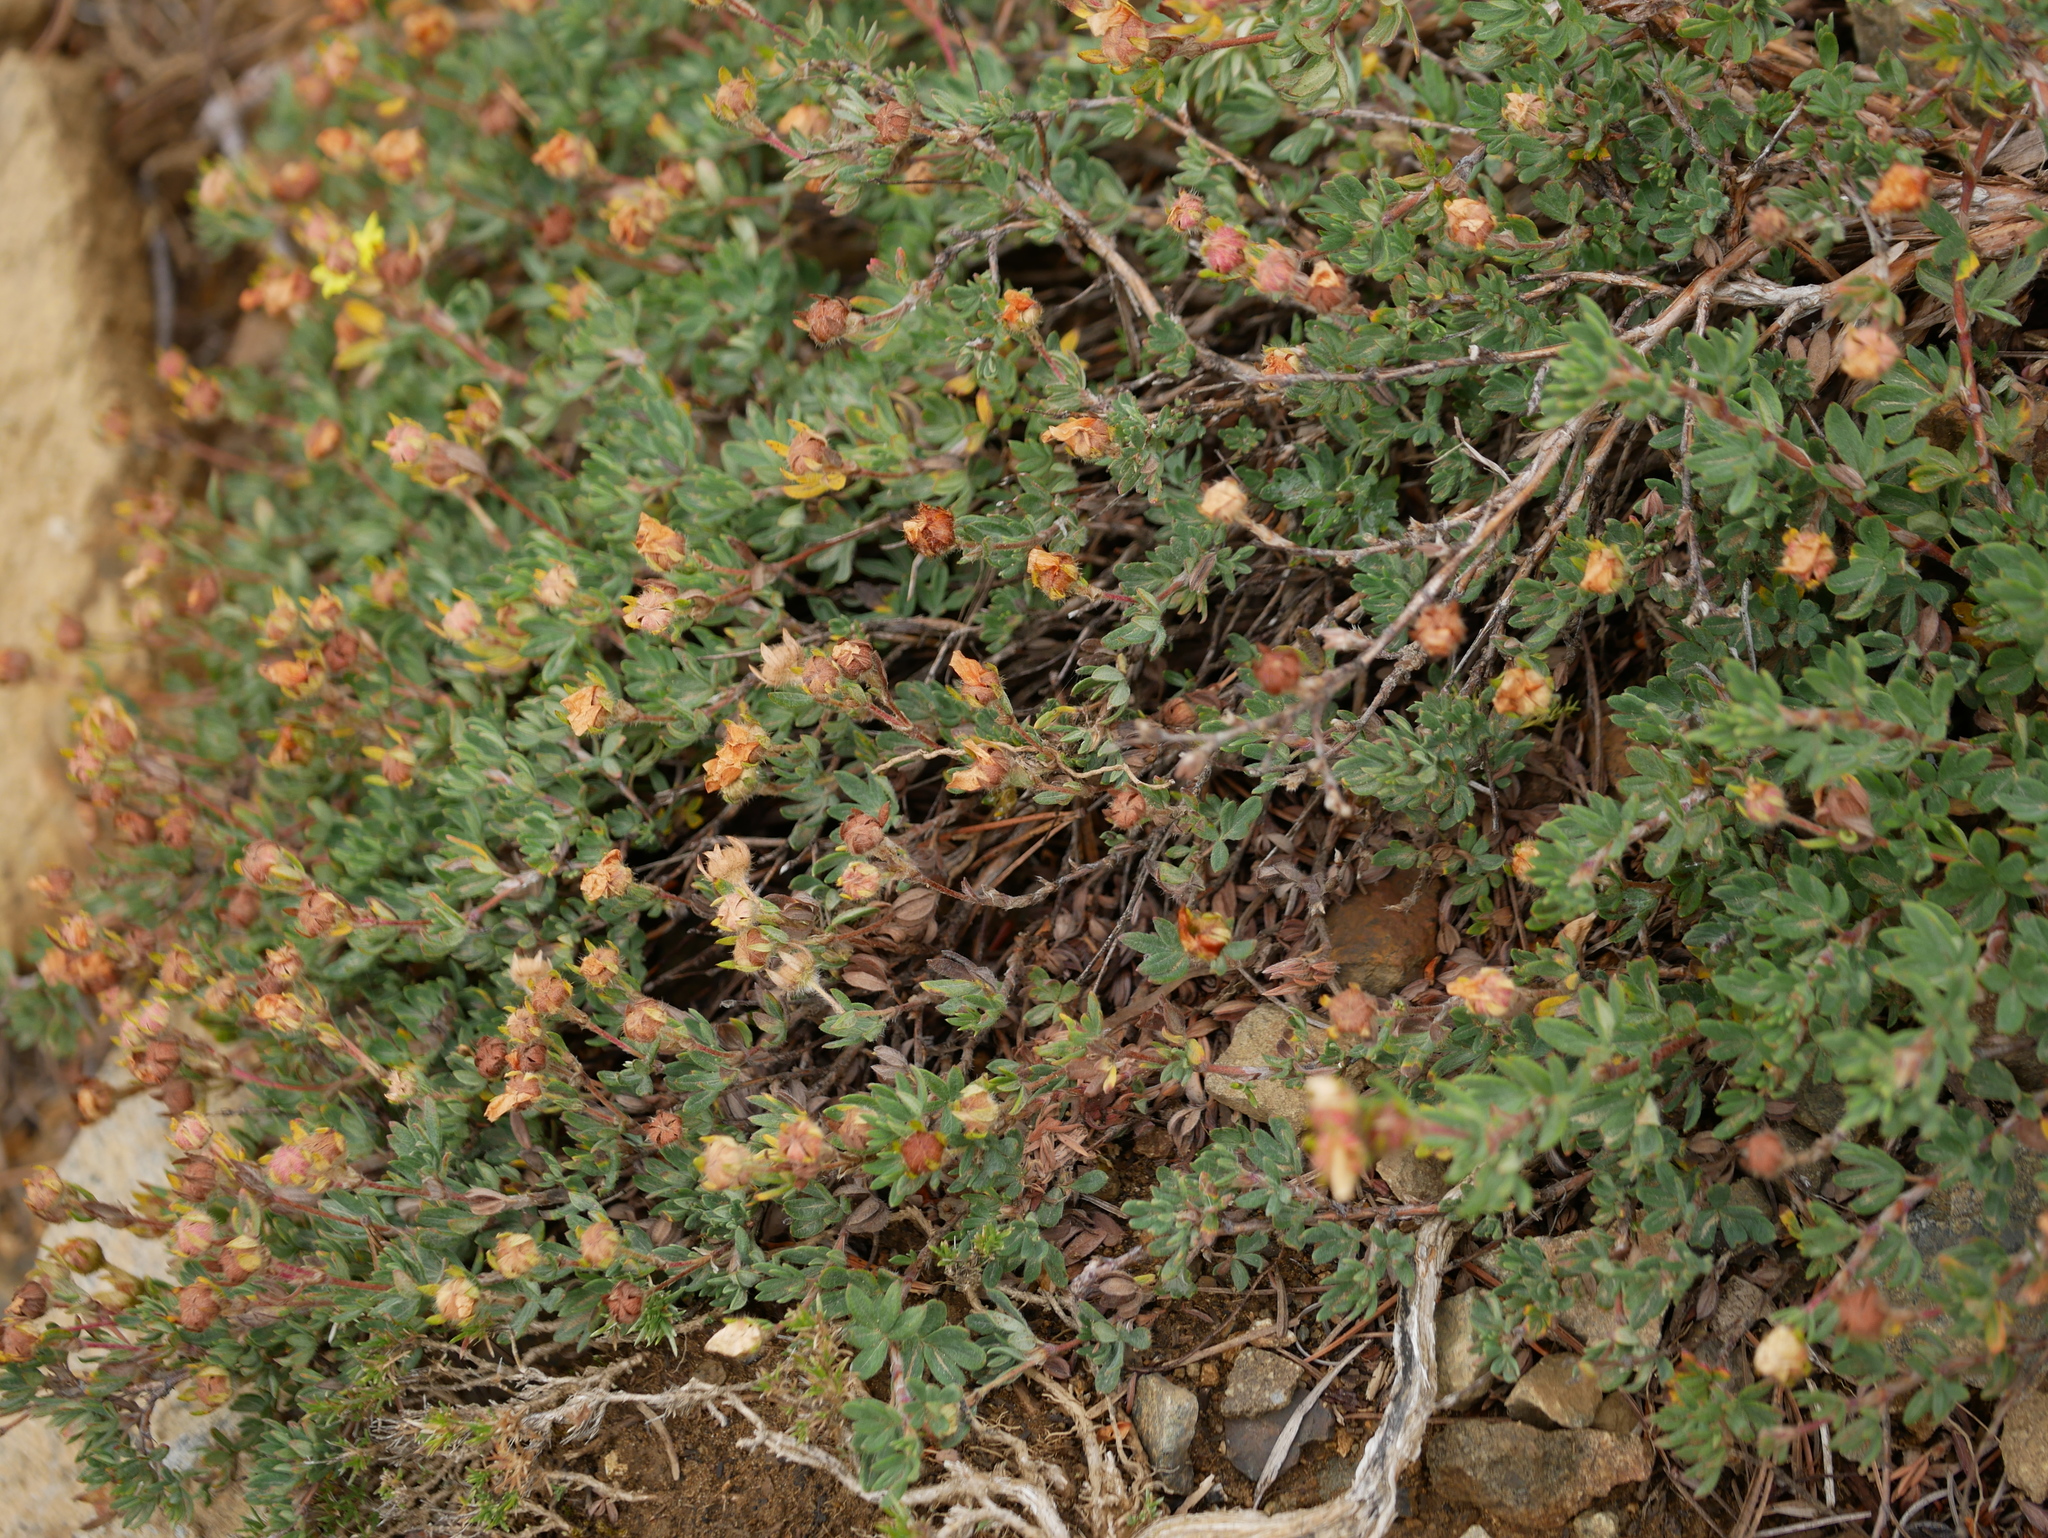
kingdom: Plantae
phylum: Tracheophyta
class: Magnoliopsida
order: Rosales
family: Rosaceae
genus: Dasiphora
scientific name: Dasiphora fruticosa
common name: Shrubby cinquefoil
